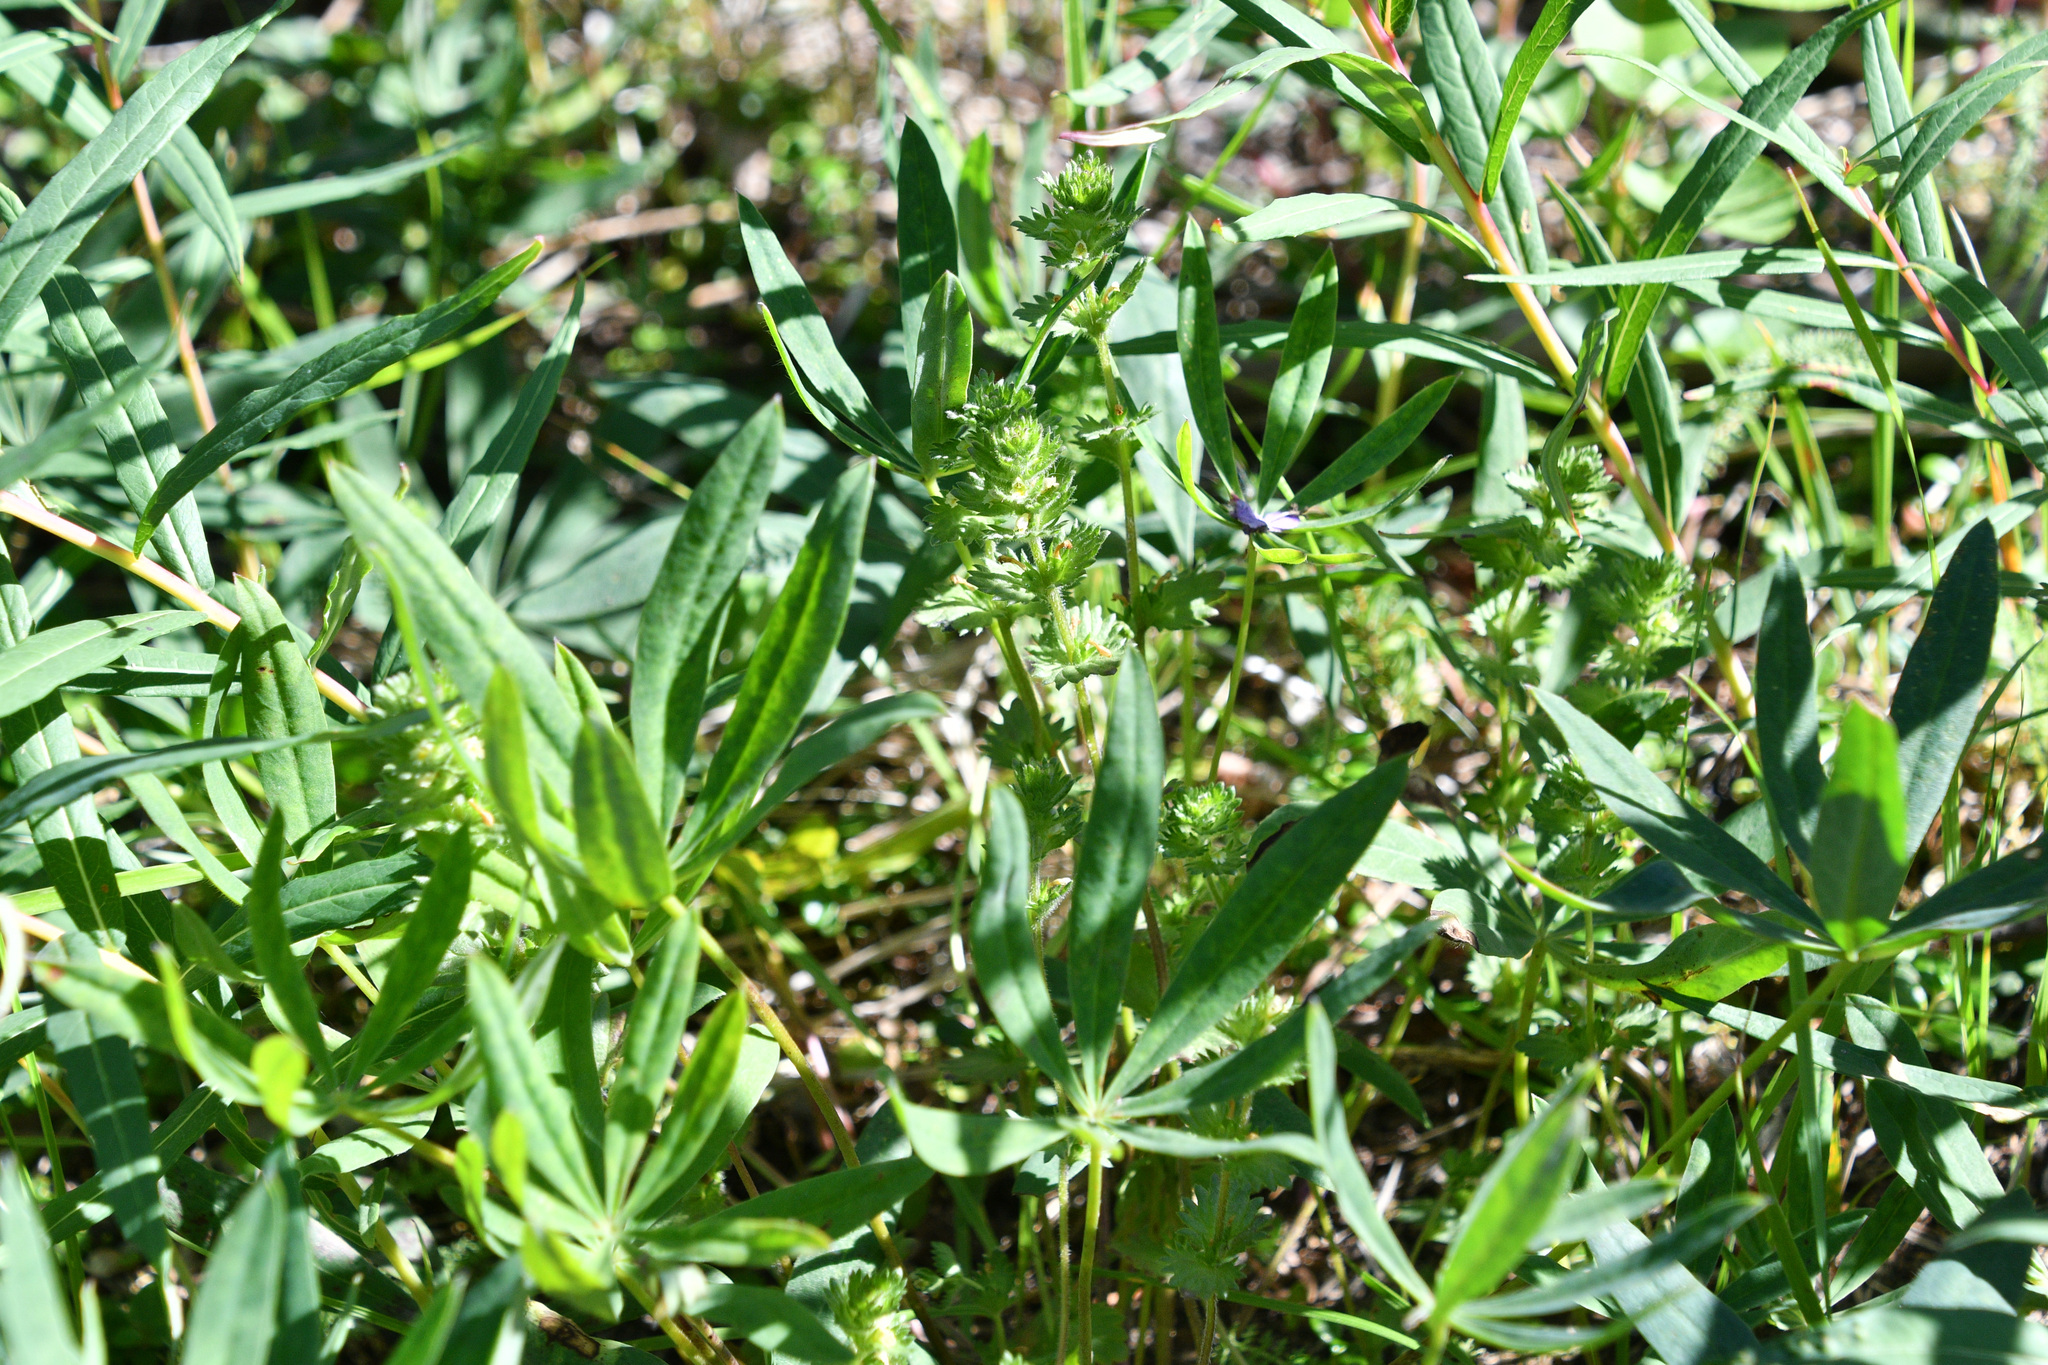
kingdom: Plantae
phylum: Tracheophyta
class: Magnoliopsida
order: Lamiales
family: Orobanchaceae
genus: Euphrasia
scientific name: Euphrasia subarctica
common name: Subarctic eyebright
